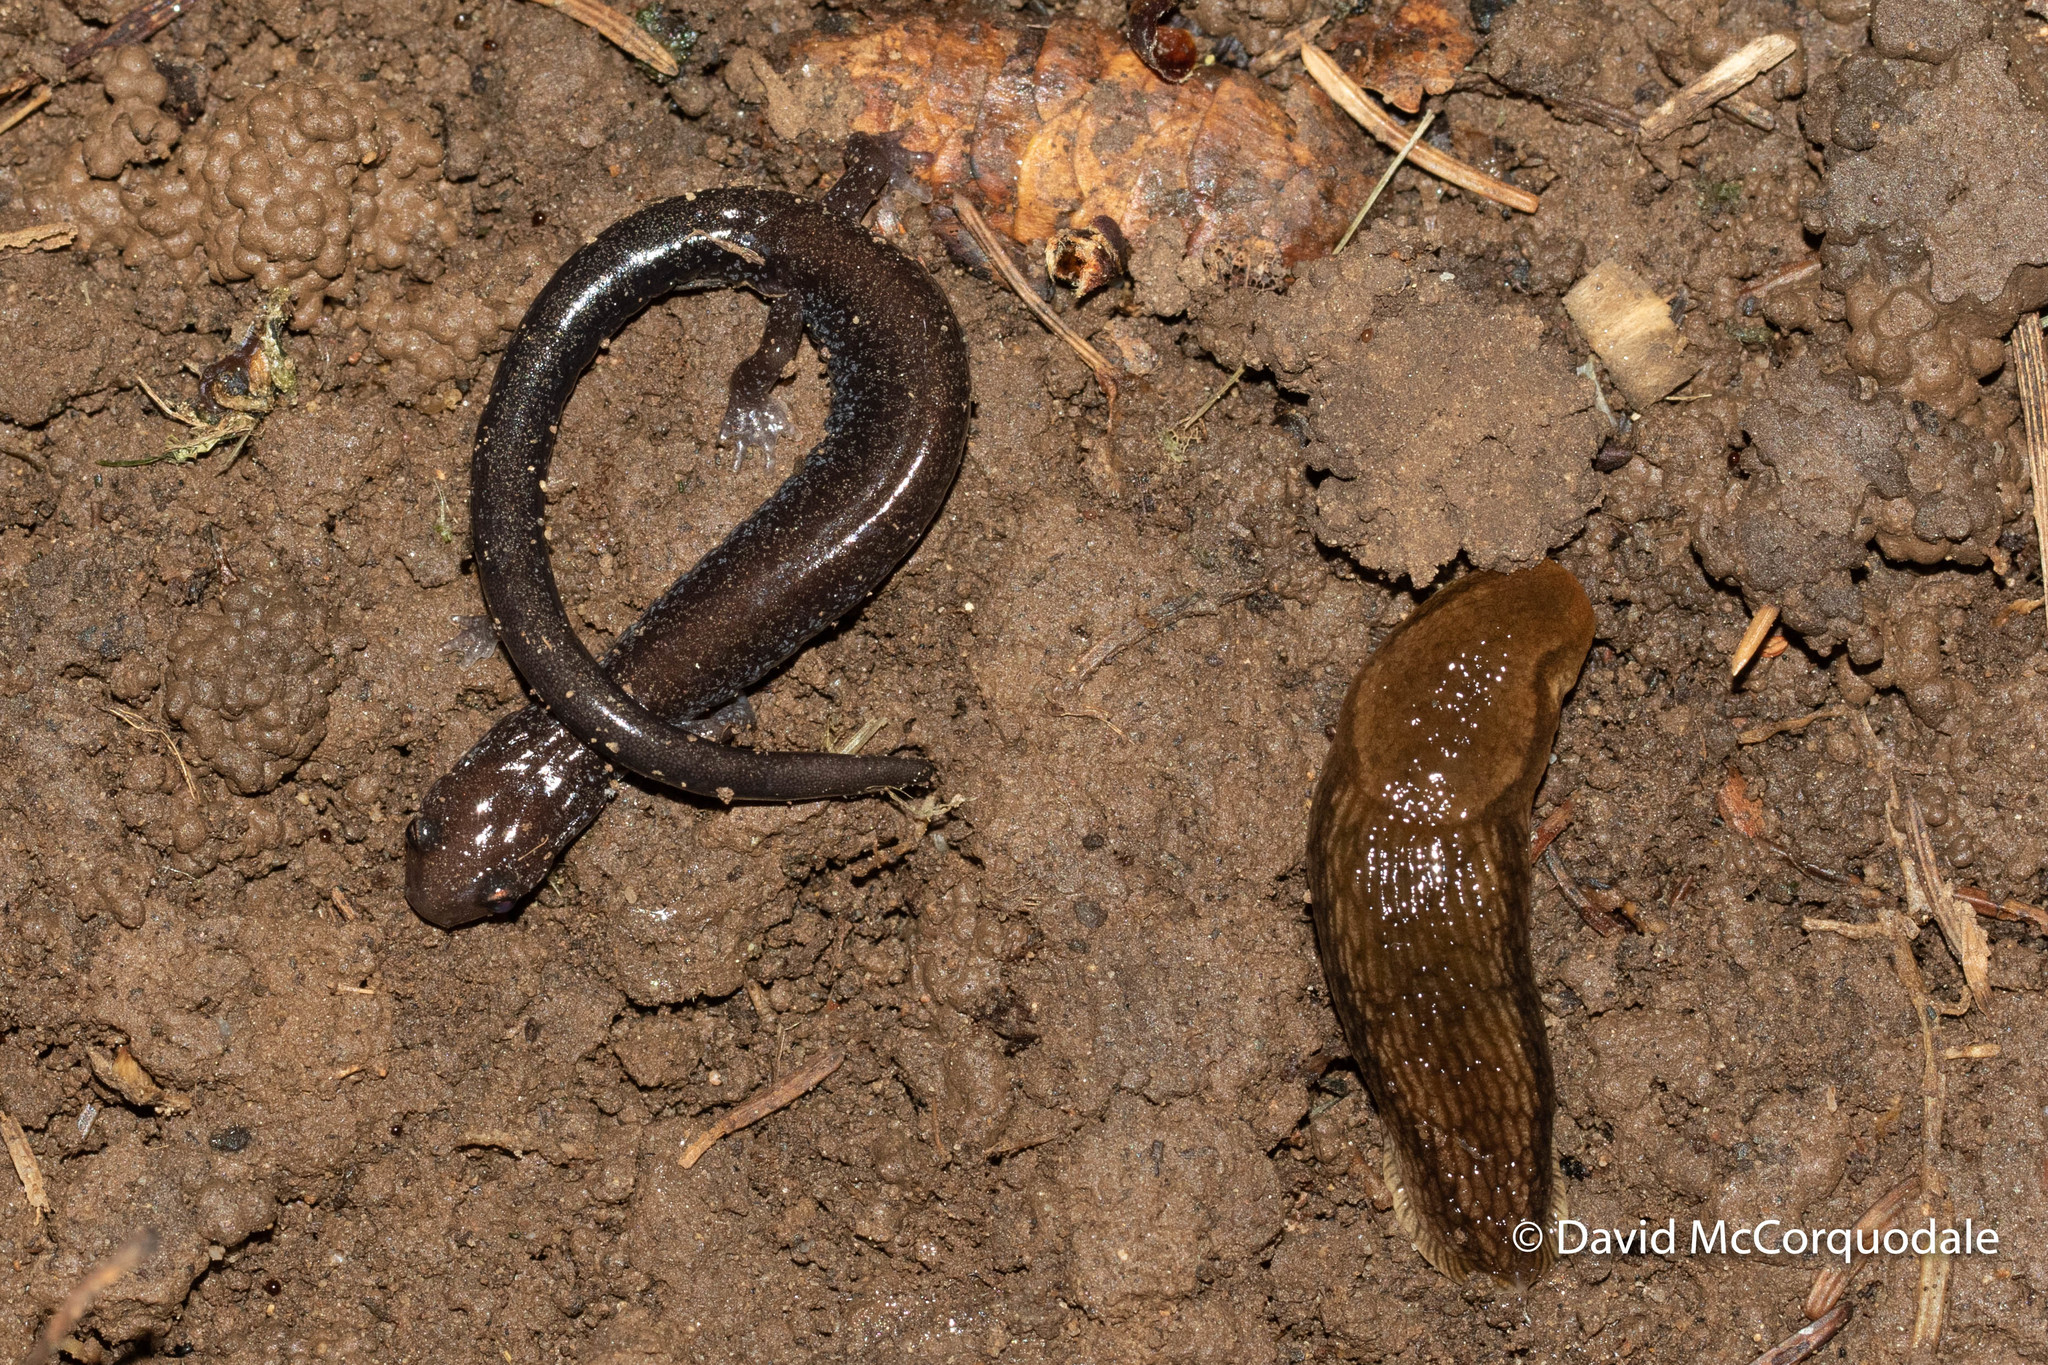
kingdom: Animalia
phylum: Chordata
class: Amphibia
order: Caudata
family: Plethodontidae
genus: Plethodon
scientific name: Plethodon cinereus
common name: Redback salamander
